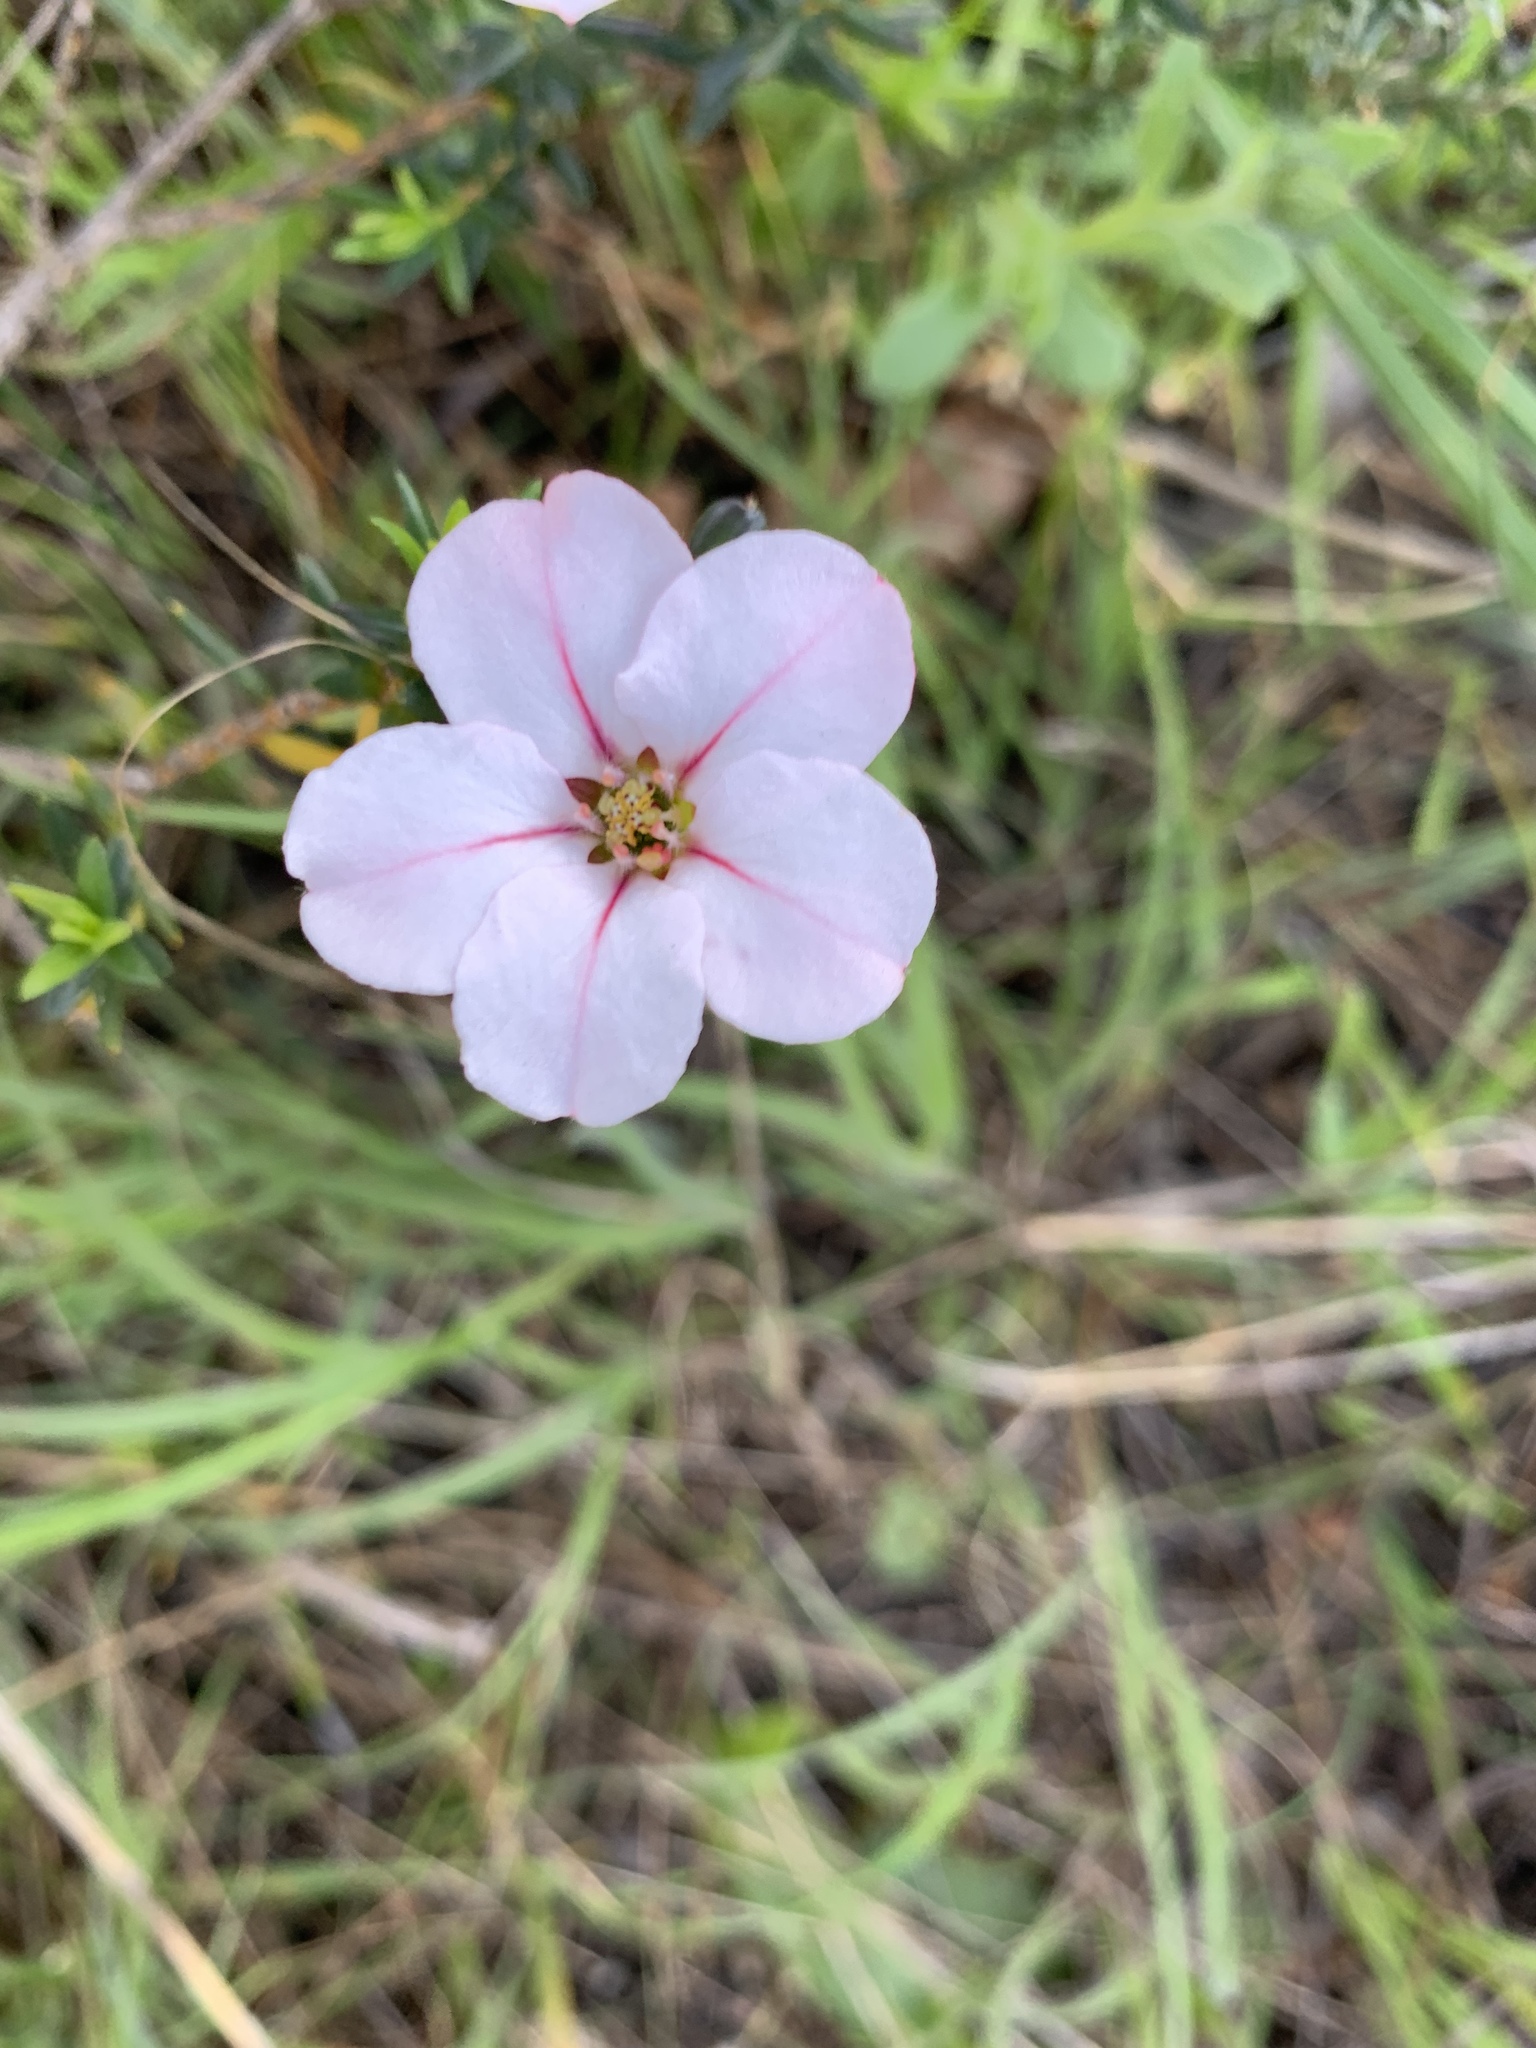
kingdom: Plantae
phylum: Tracheophyta
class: Magnoliopsida
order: Sapindales
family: Rutaceae
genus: Adenandra
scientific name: Adenandra uniflora
